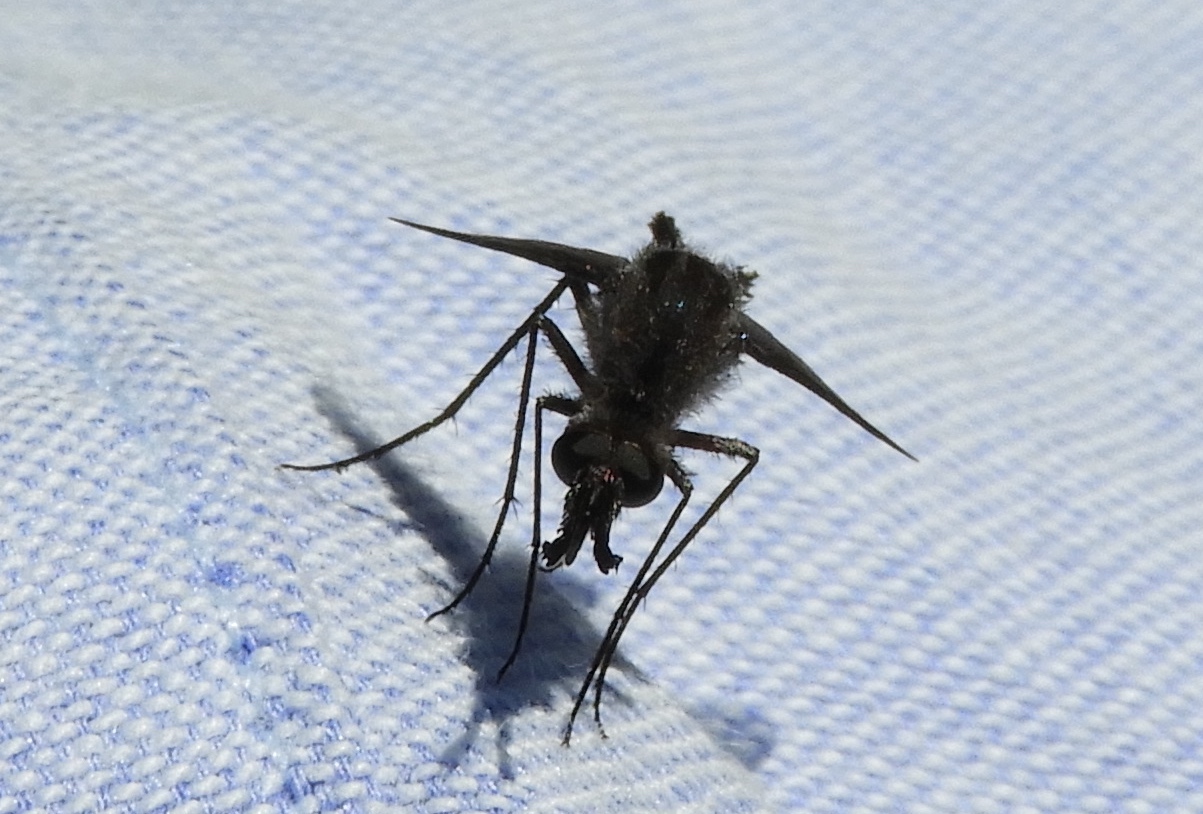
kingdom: Animalia
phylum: Arthropoda
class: Insecta
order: Diptera
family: Bombyliidae
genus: Lepidophora
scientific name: Lepidophora vetusta
